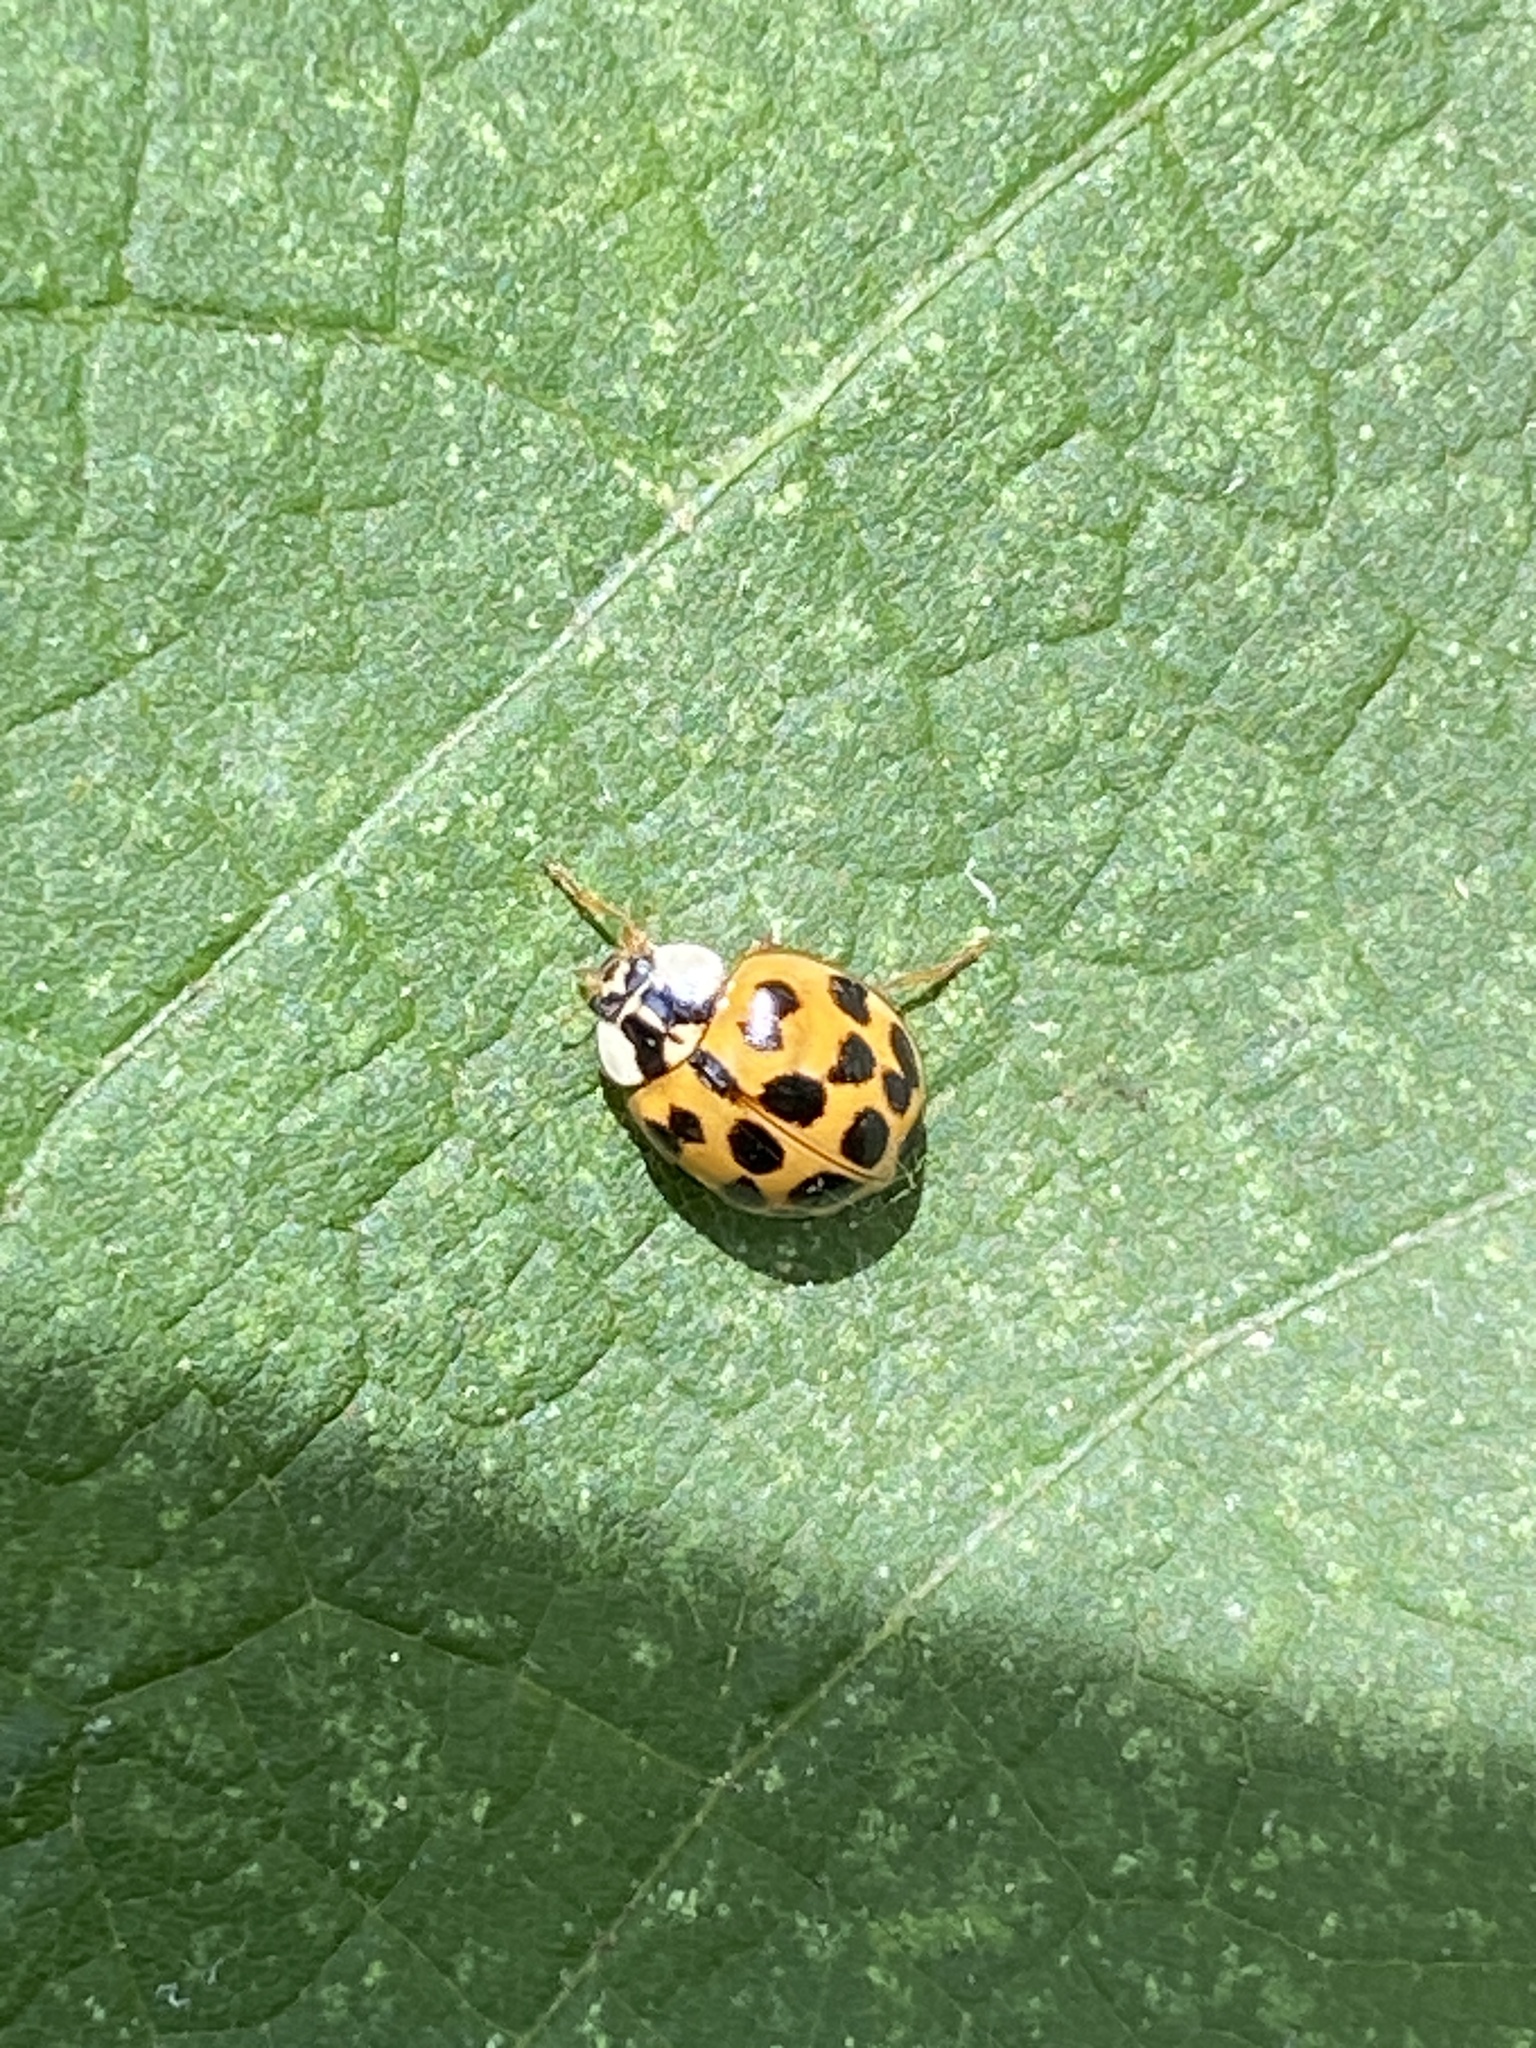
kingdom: Animalia
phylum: Arthropoda
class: Insecta
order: Coleoptera
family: Coccinellidae
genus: Harmonia
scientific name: Harmonia axyridis
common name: Harlequin ladybird
